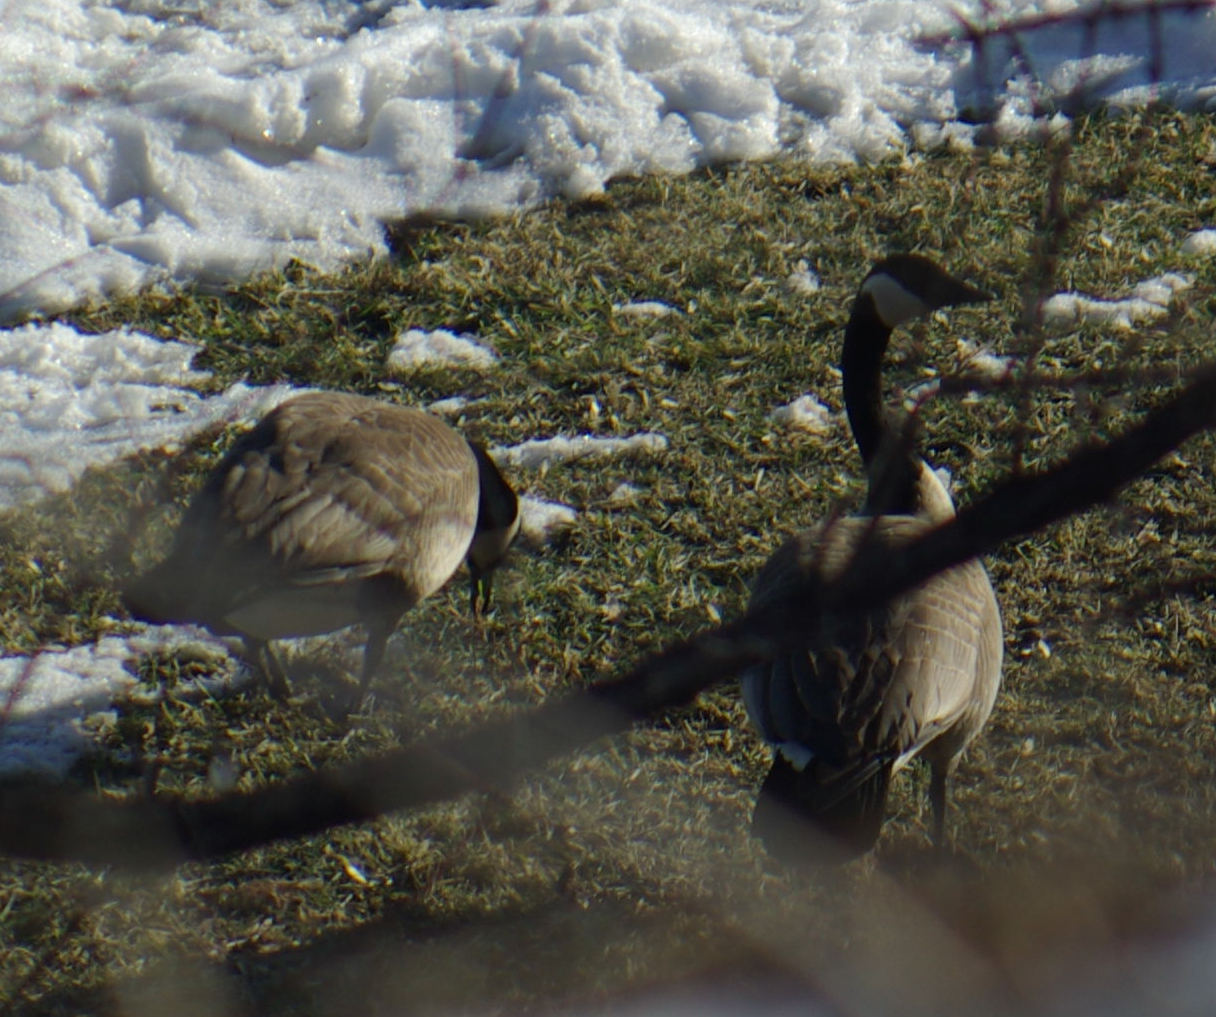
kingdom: Animalia
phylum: Chordata
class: Aves
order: Anseriformes
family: Anatidae
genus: Branta
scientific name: Branta canadensis
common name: Canada goose
